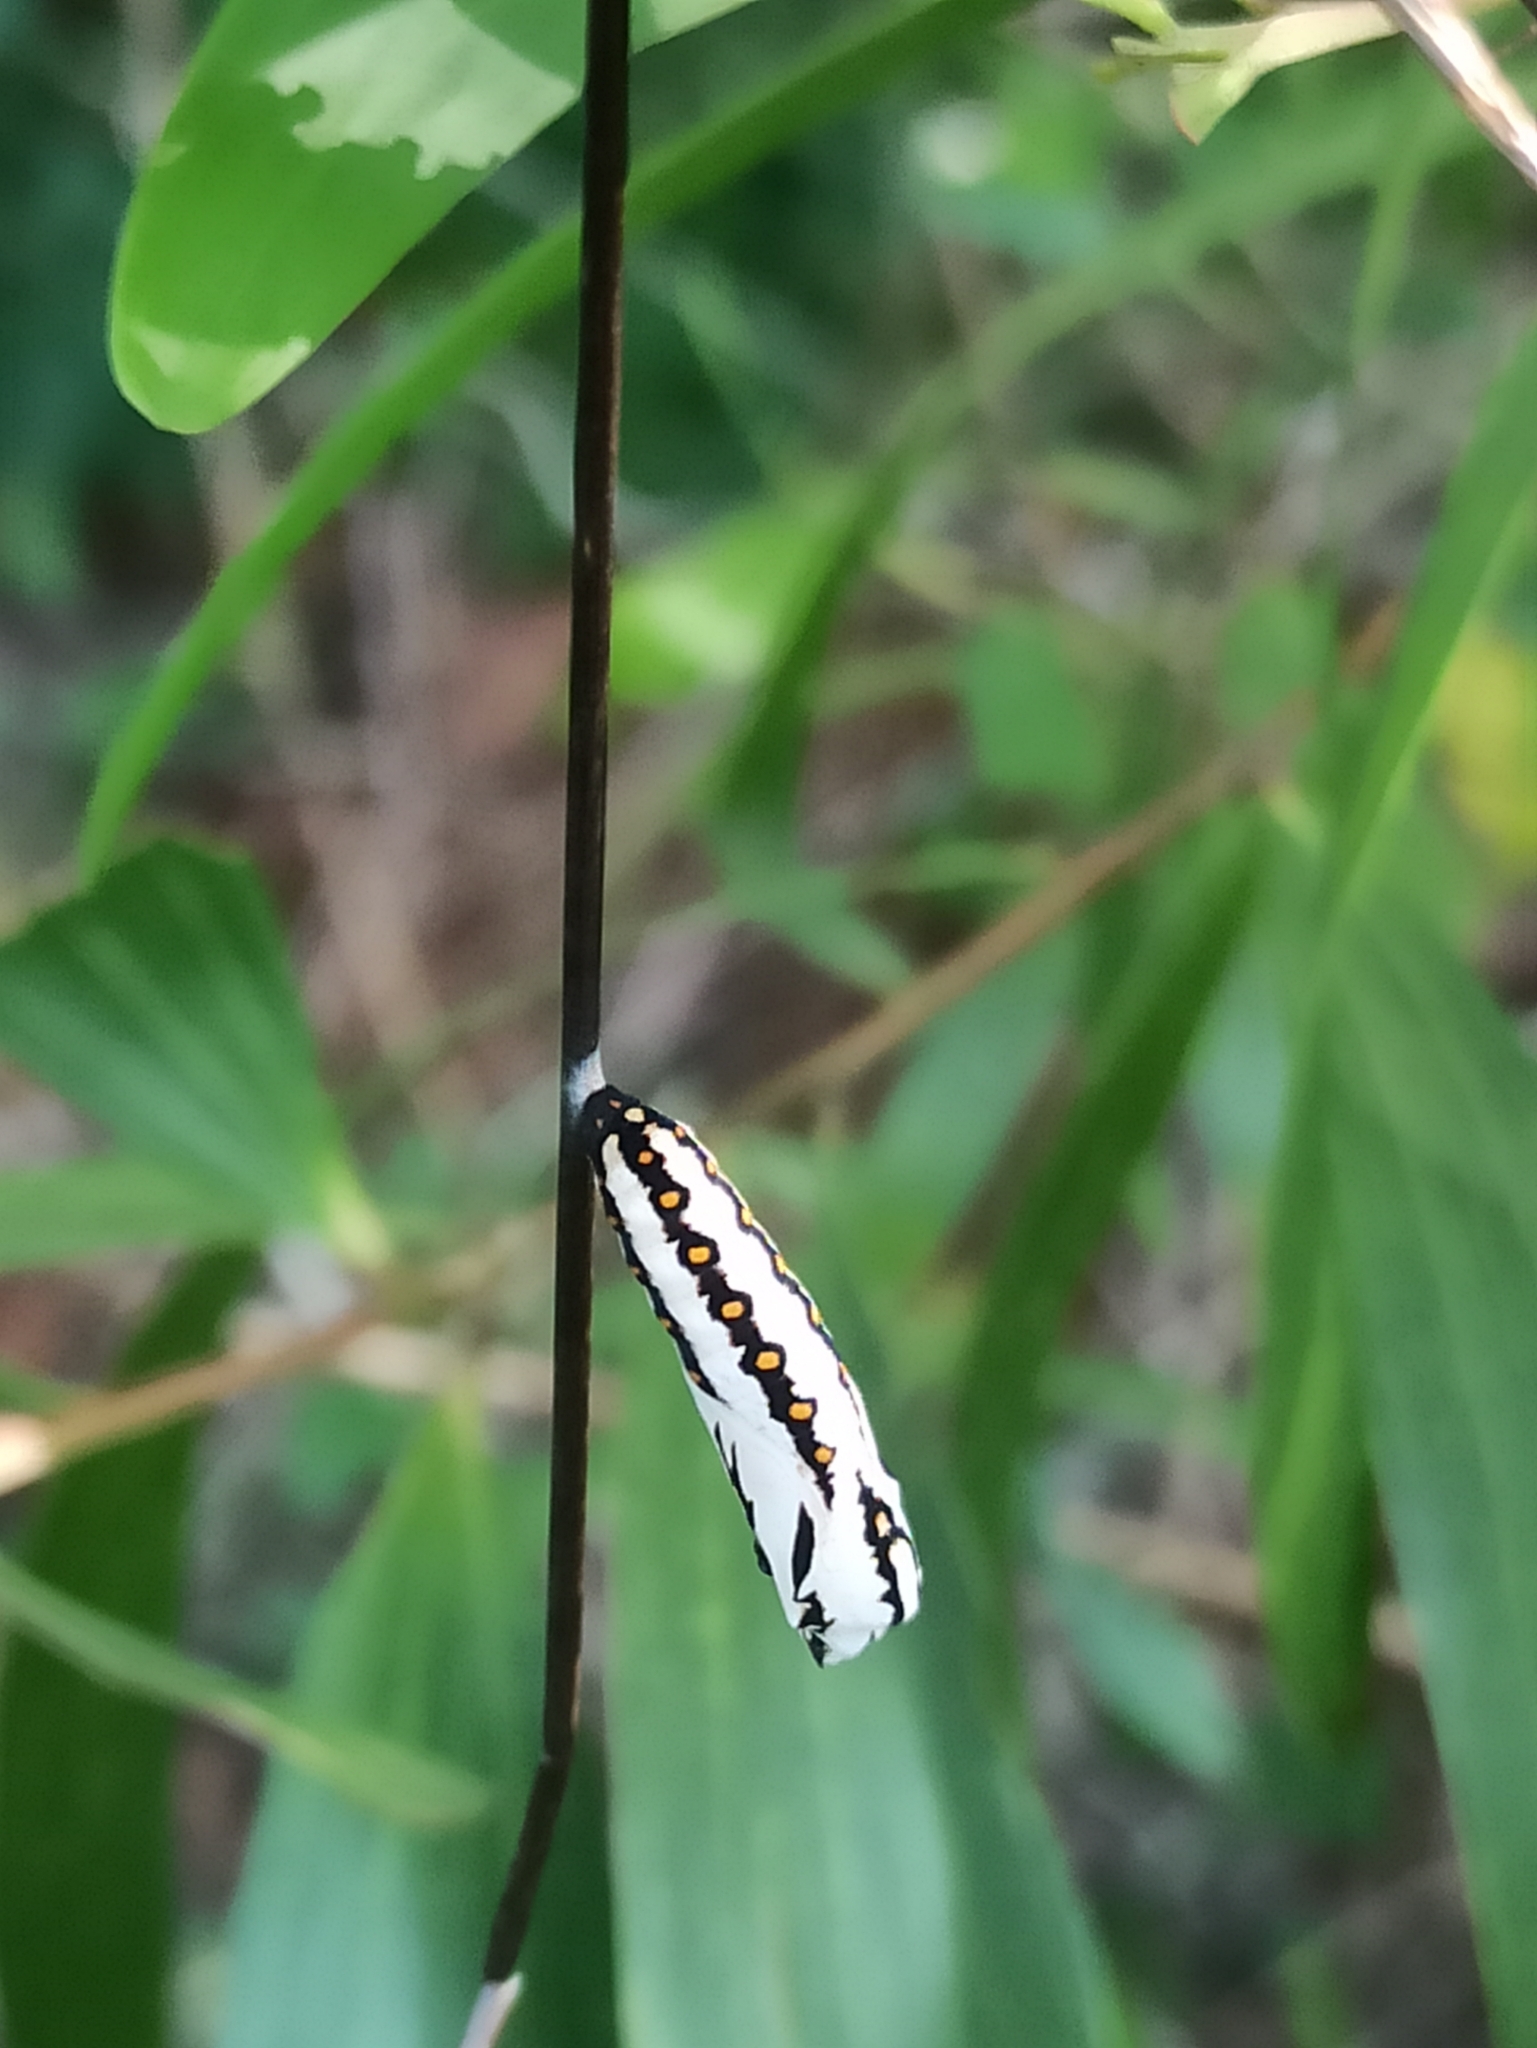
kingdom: Animalia
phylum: Arthropoda
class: Insecta
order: Lepidoptera
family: Nymphalidae
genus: Acraea
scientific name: Acraea terpsicore
